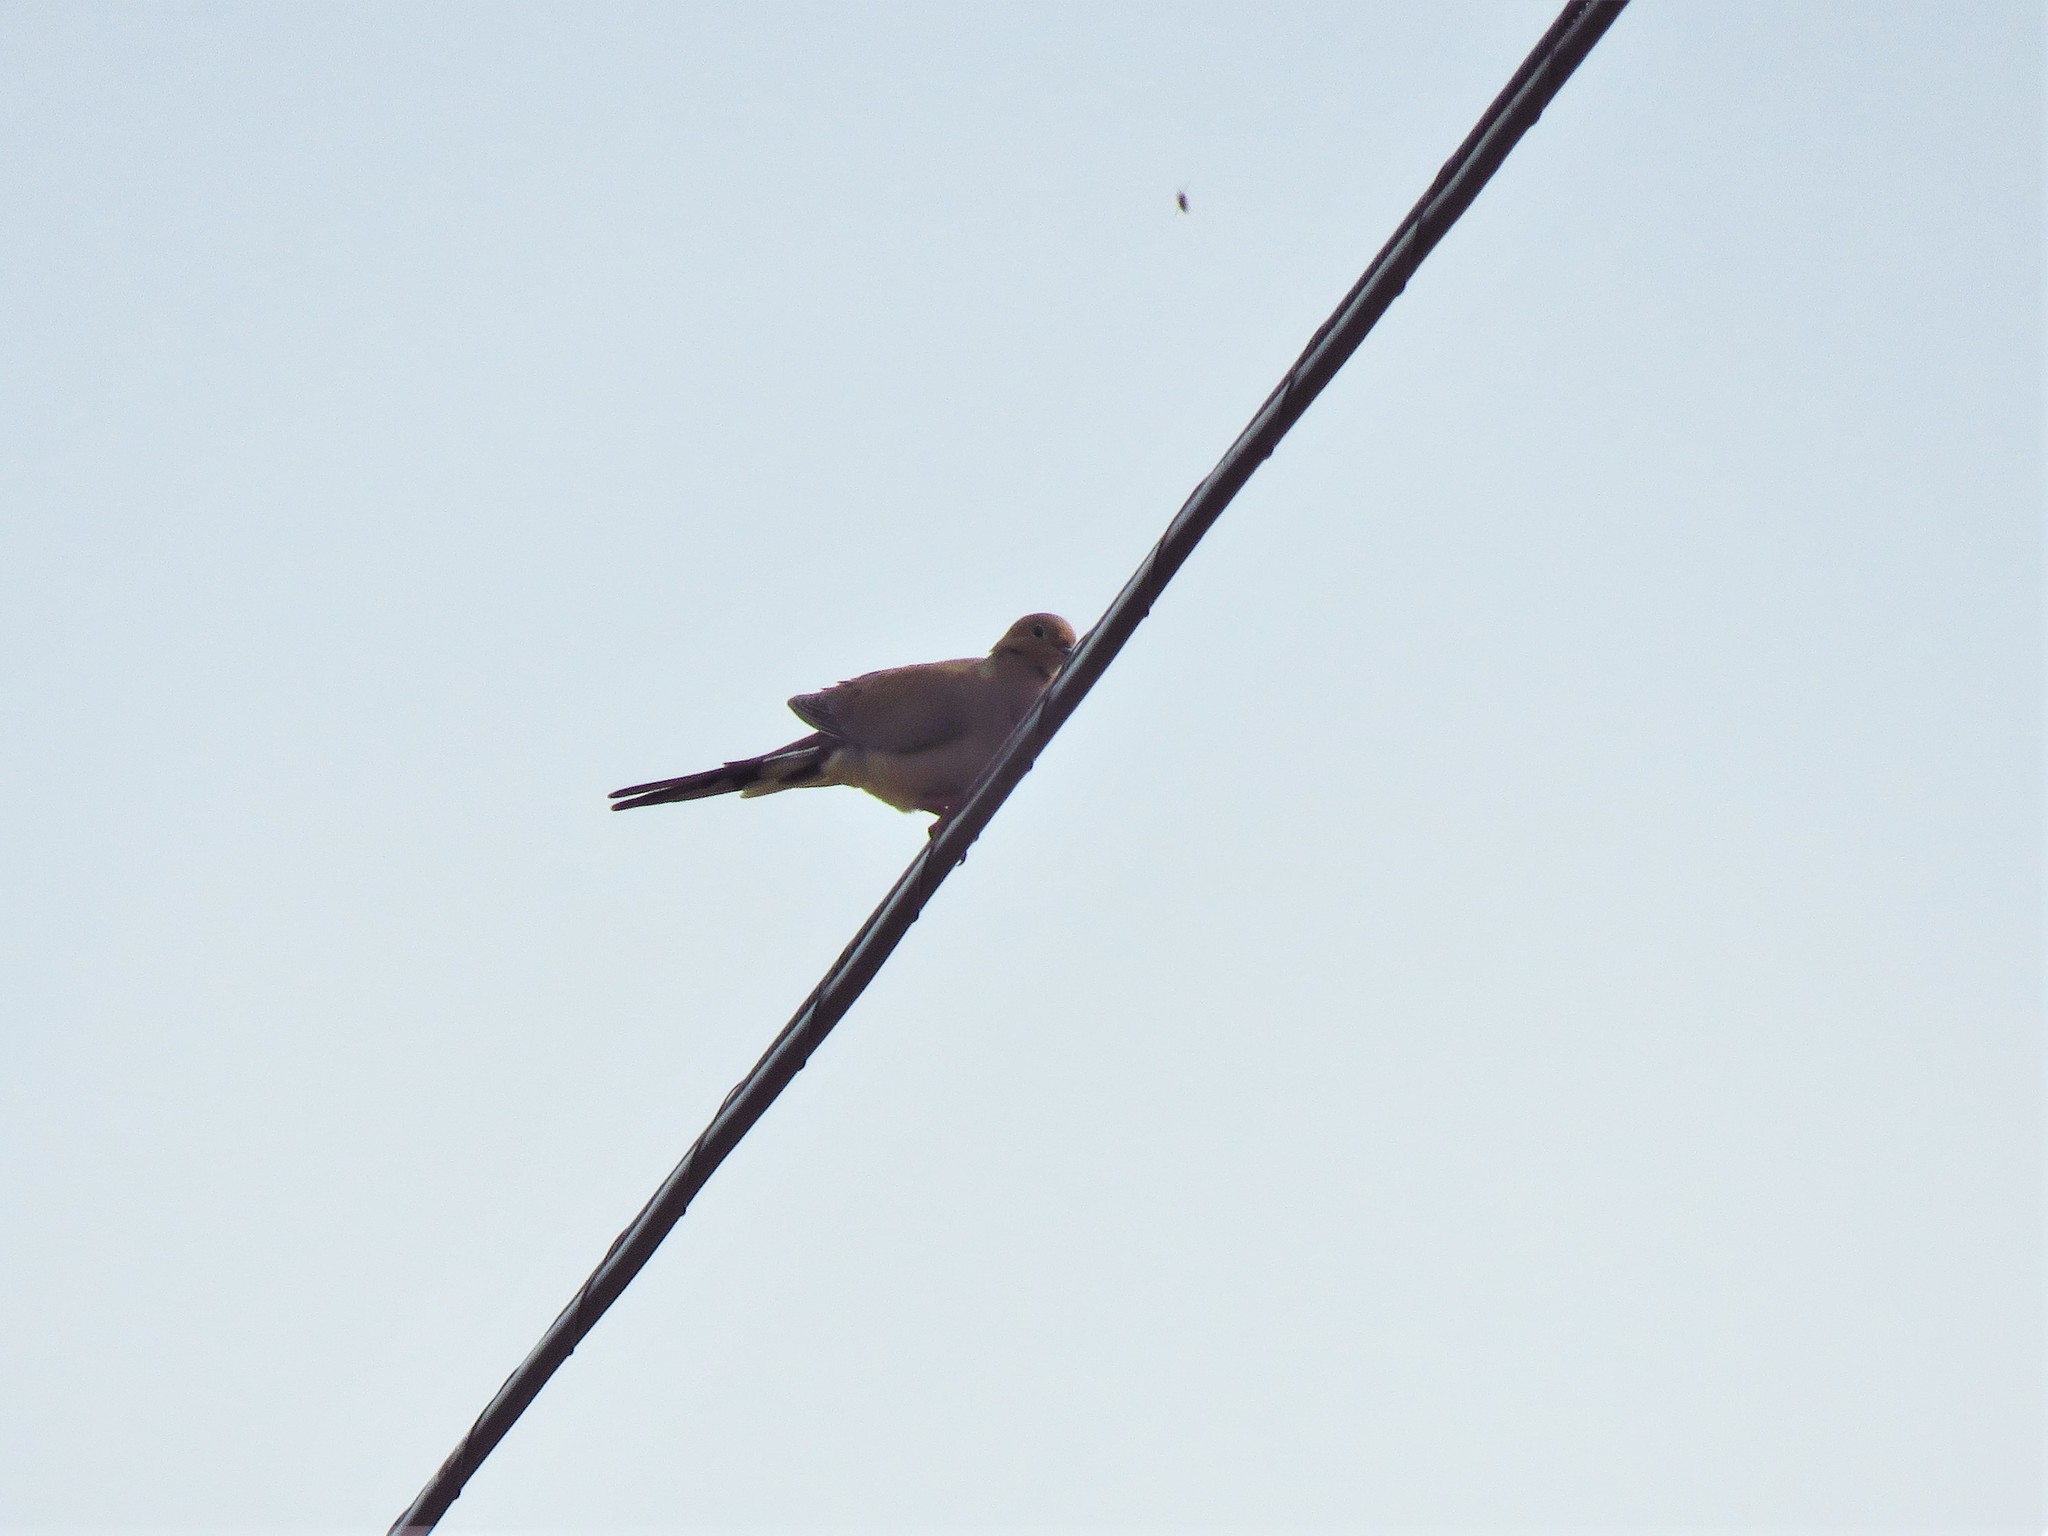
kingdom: Animalia
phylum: Chordata
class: Aves
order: Columbiformes
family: Columbidae
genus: Zenaida
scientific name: Zenaida macroura
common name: Mourning dove
